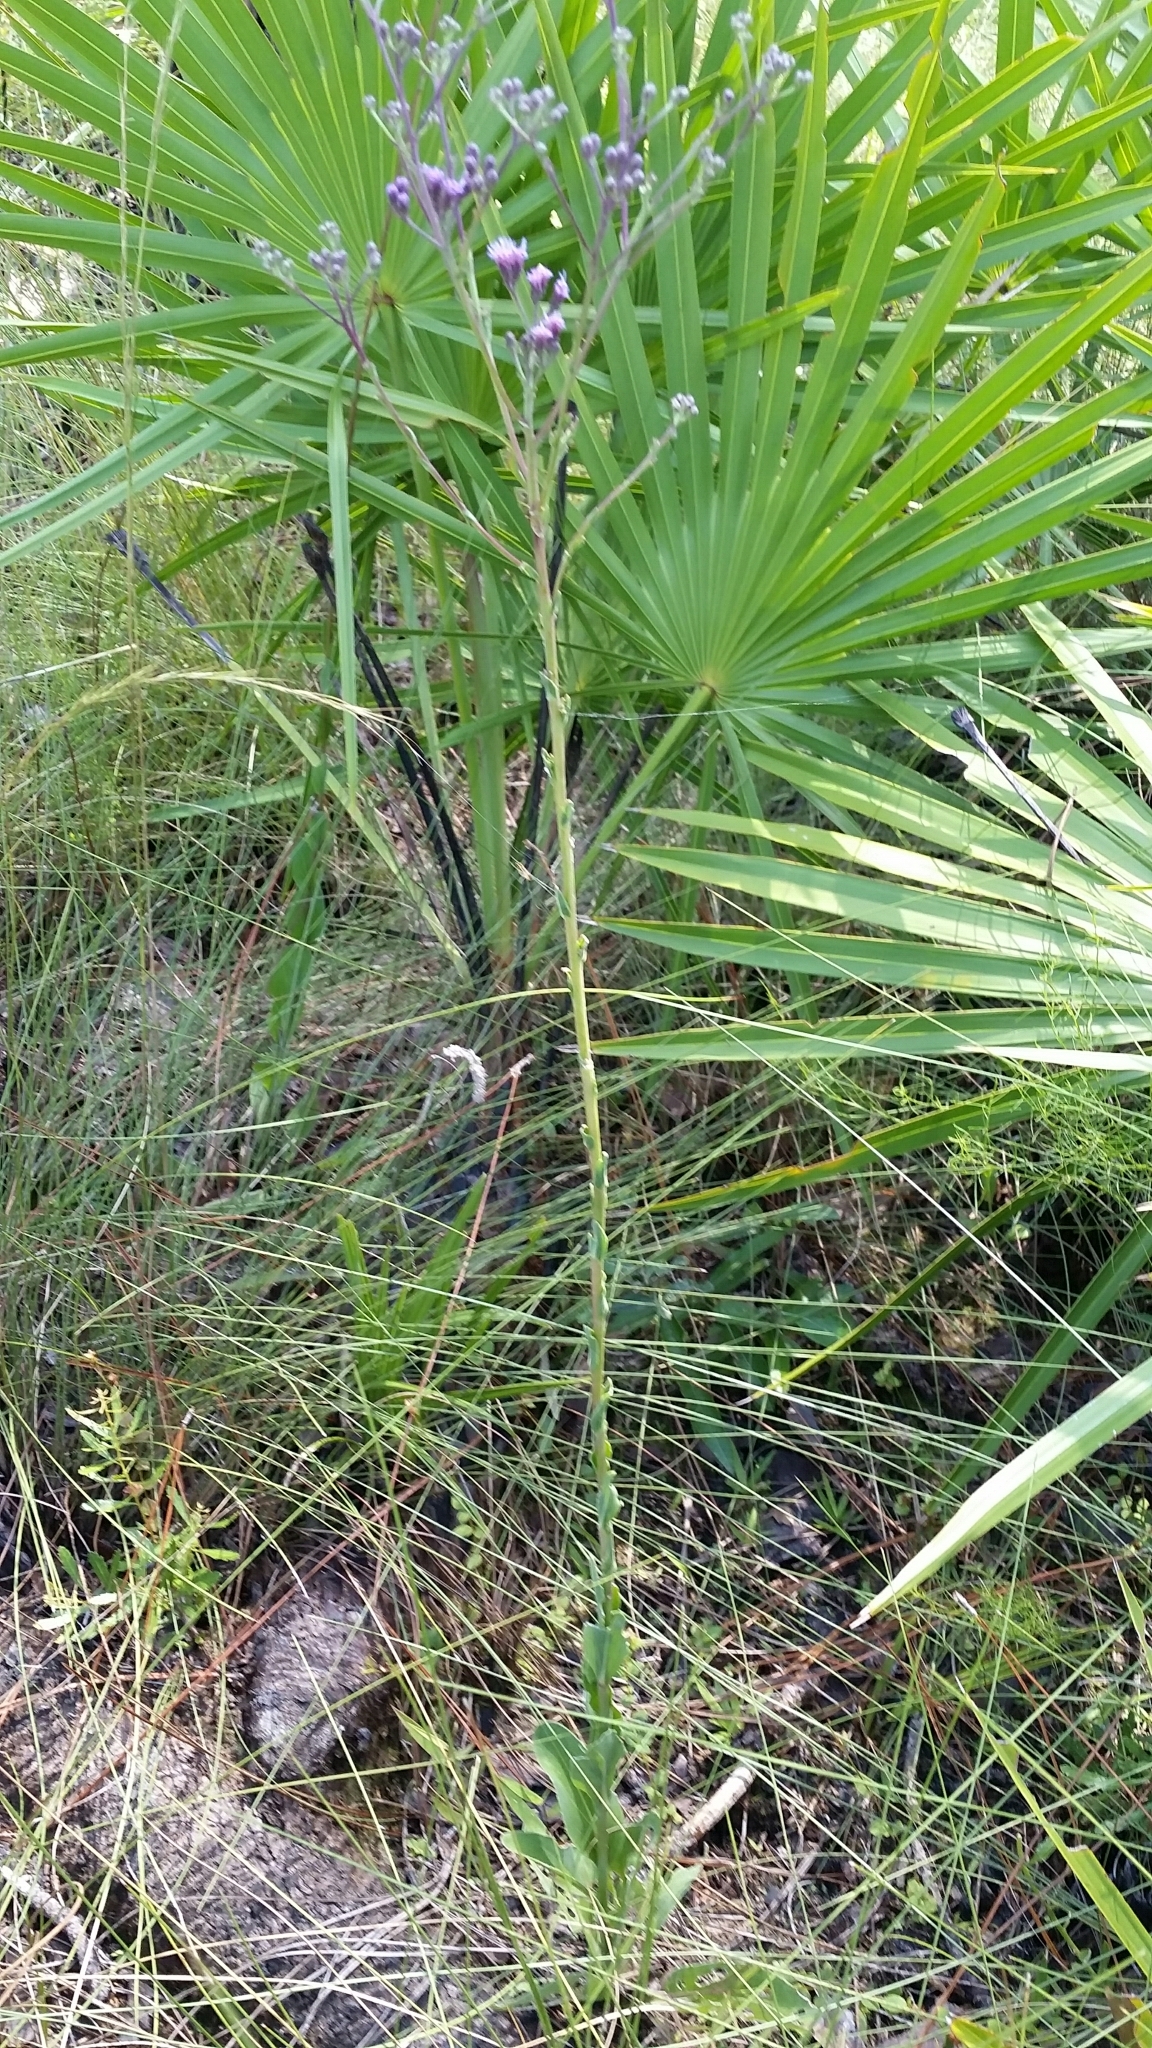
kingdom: Plantae
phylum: Tracheophyta
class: Magnoliopsida
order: Asterales
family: Asteraceae
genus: Carphephorus
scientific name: Carphephorus
